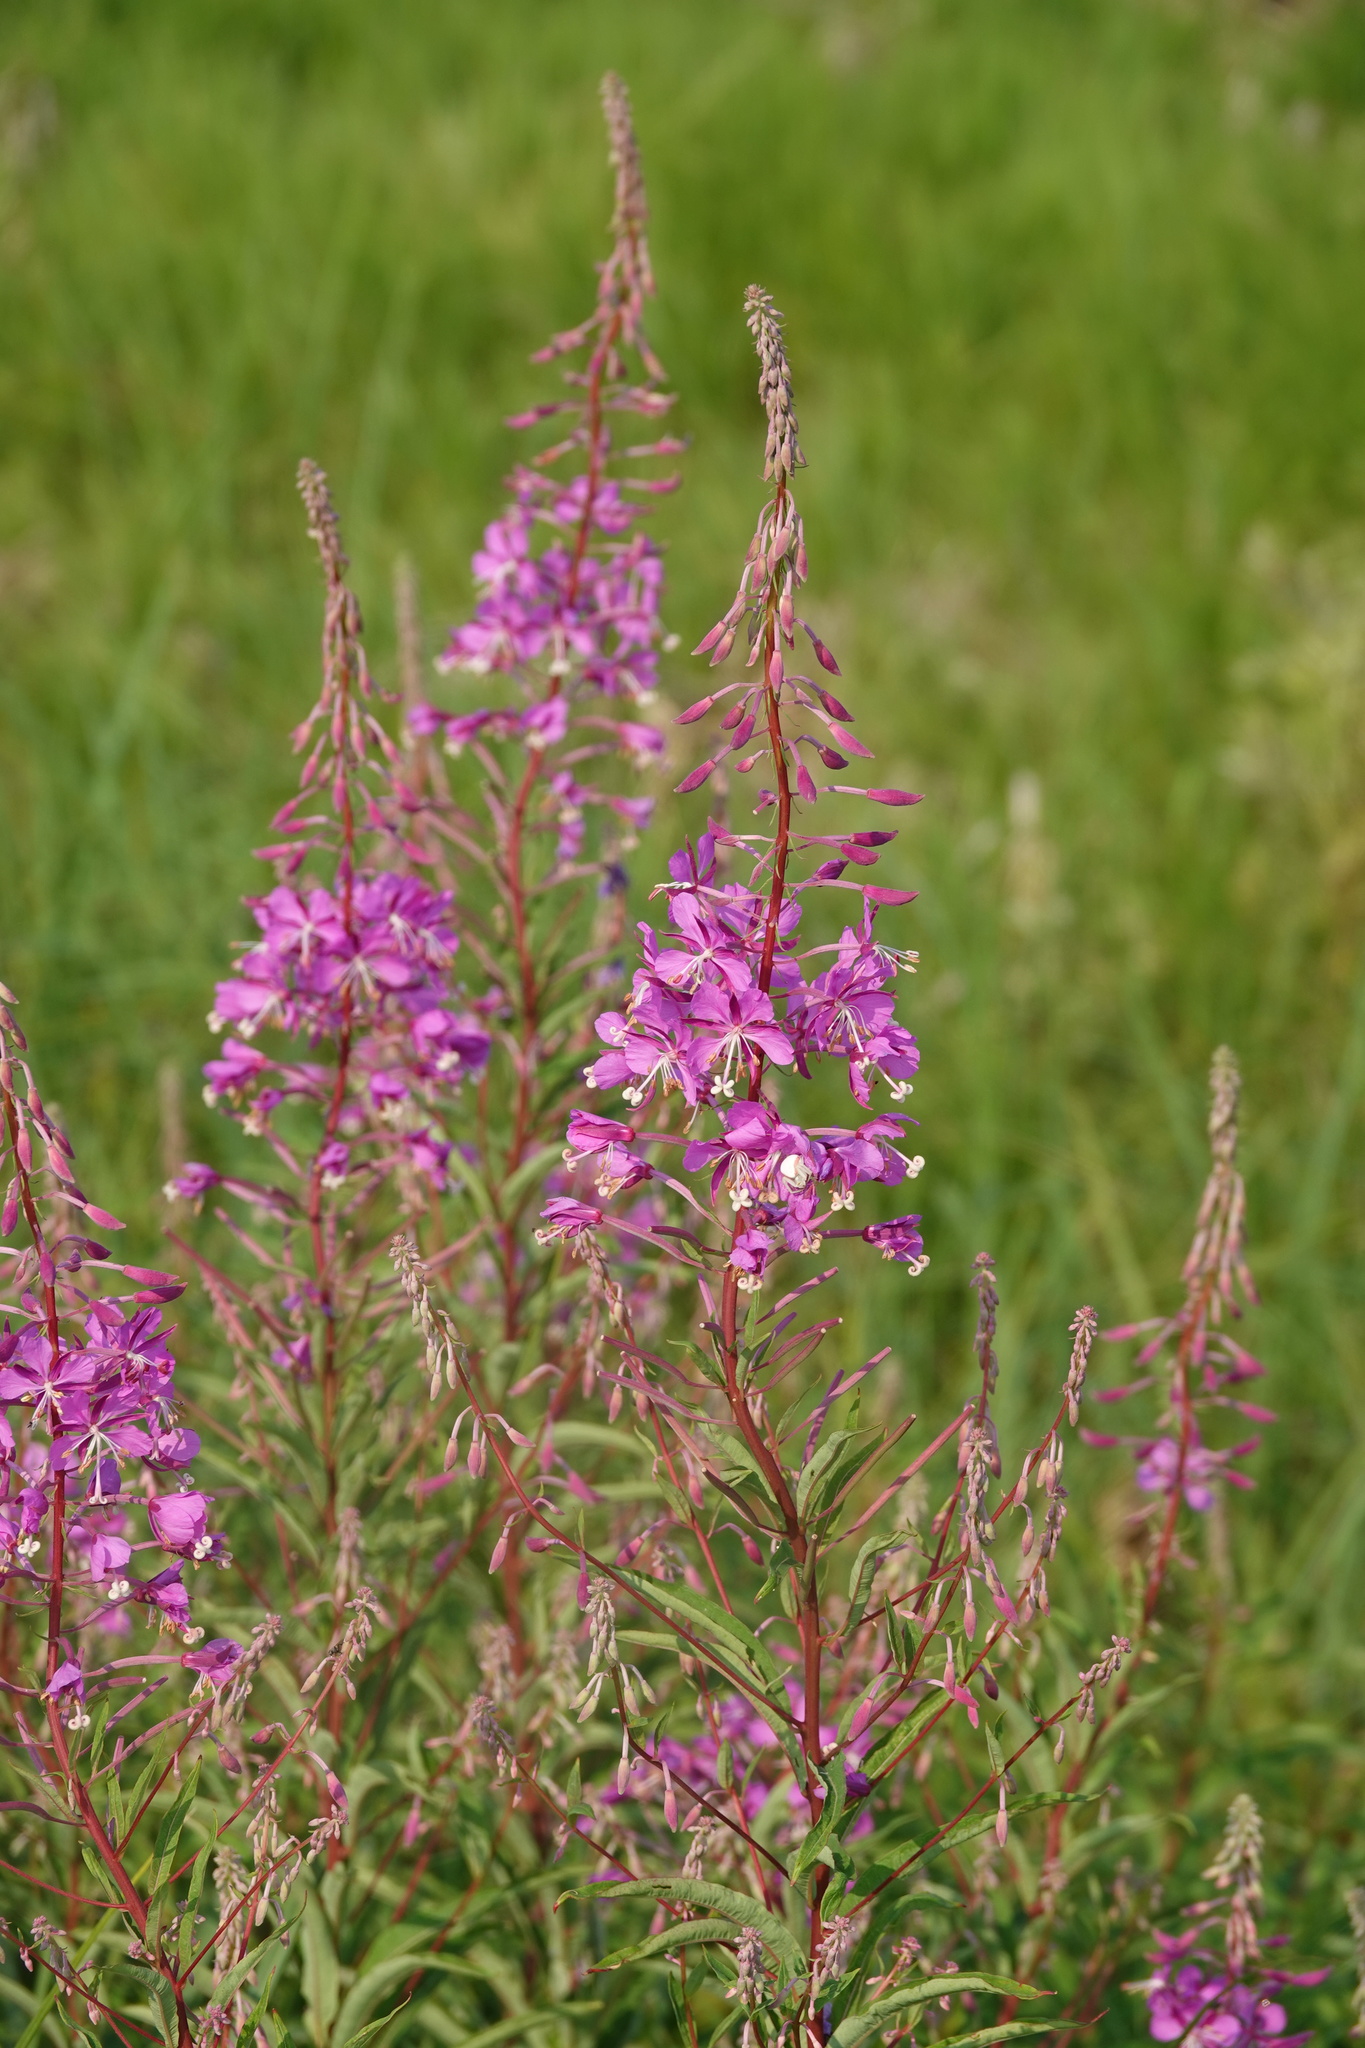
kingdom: Plantae
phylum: Tracheophyta
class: Magnoliopsida
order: Myrtales
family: Onagraceae
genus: Chamaenerion
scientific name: Chamaenerion angustifolium
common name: Fireweed
